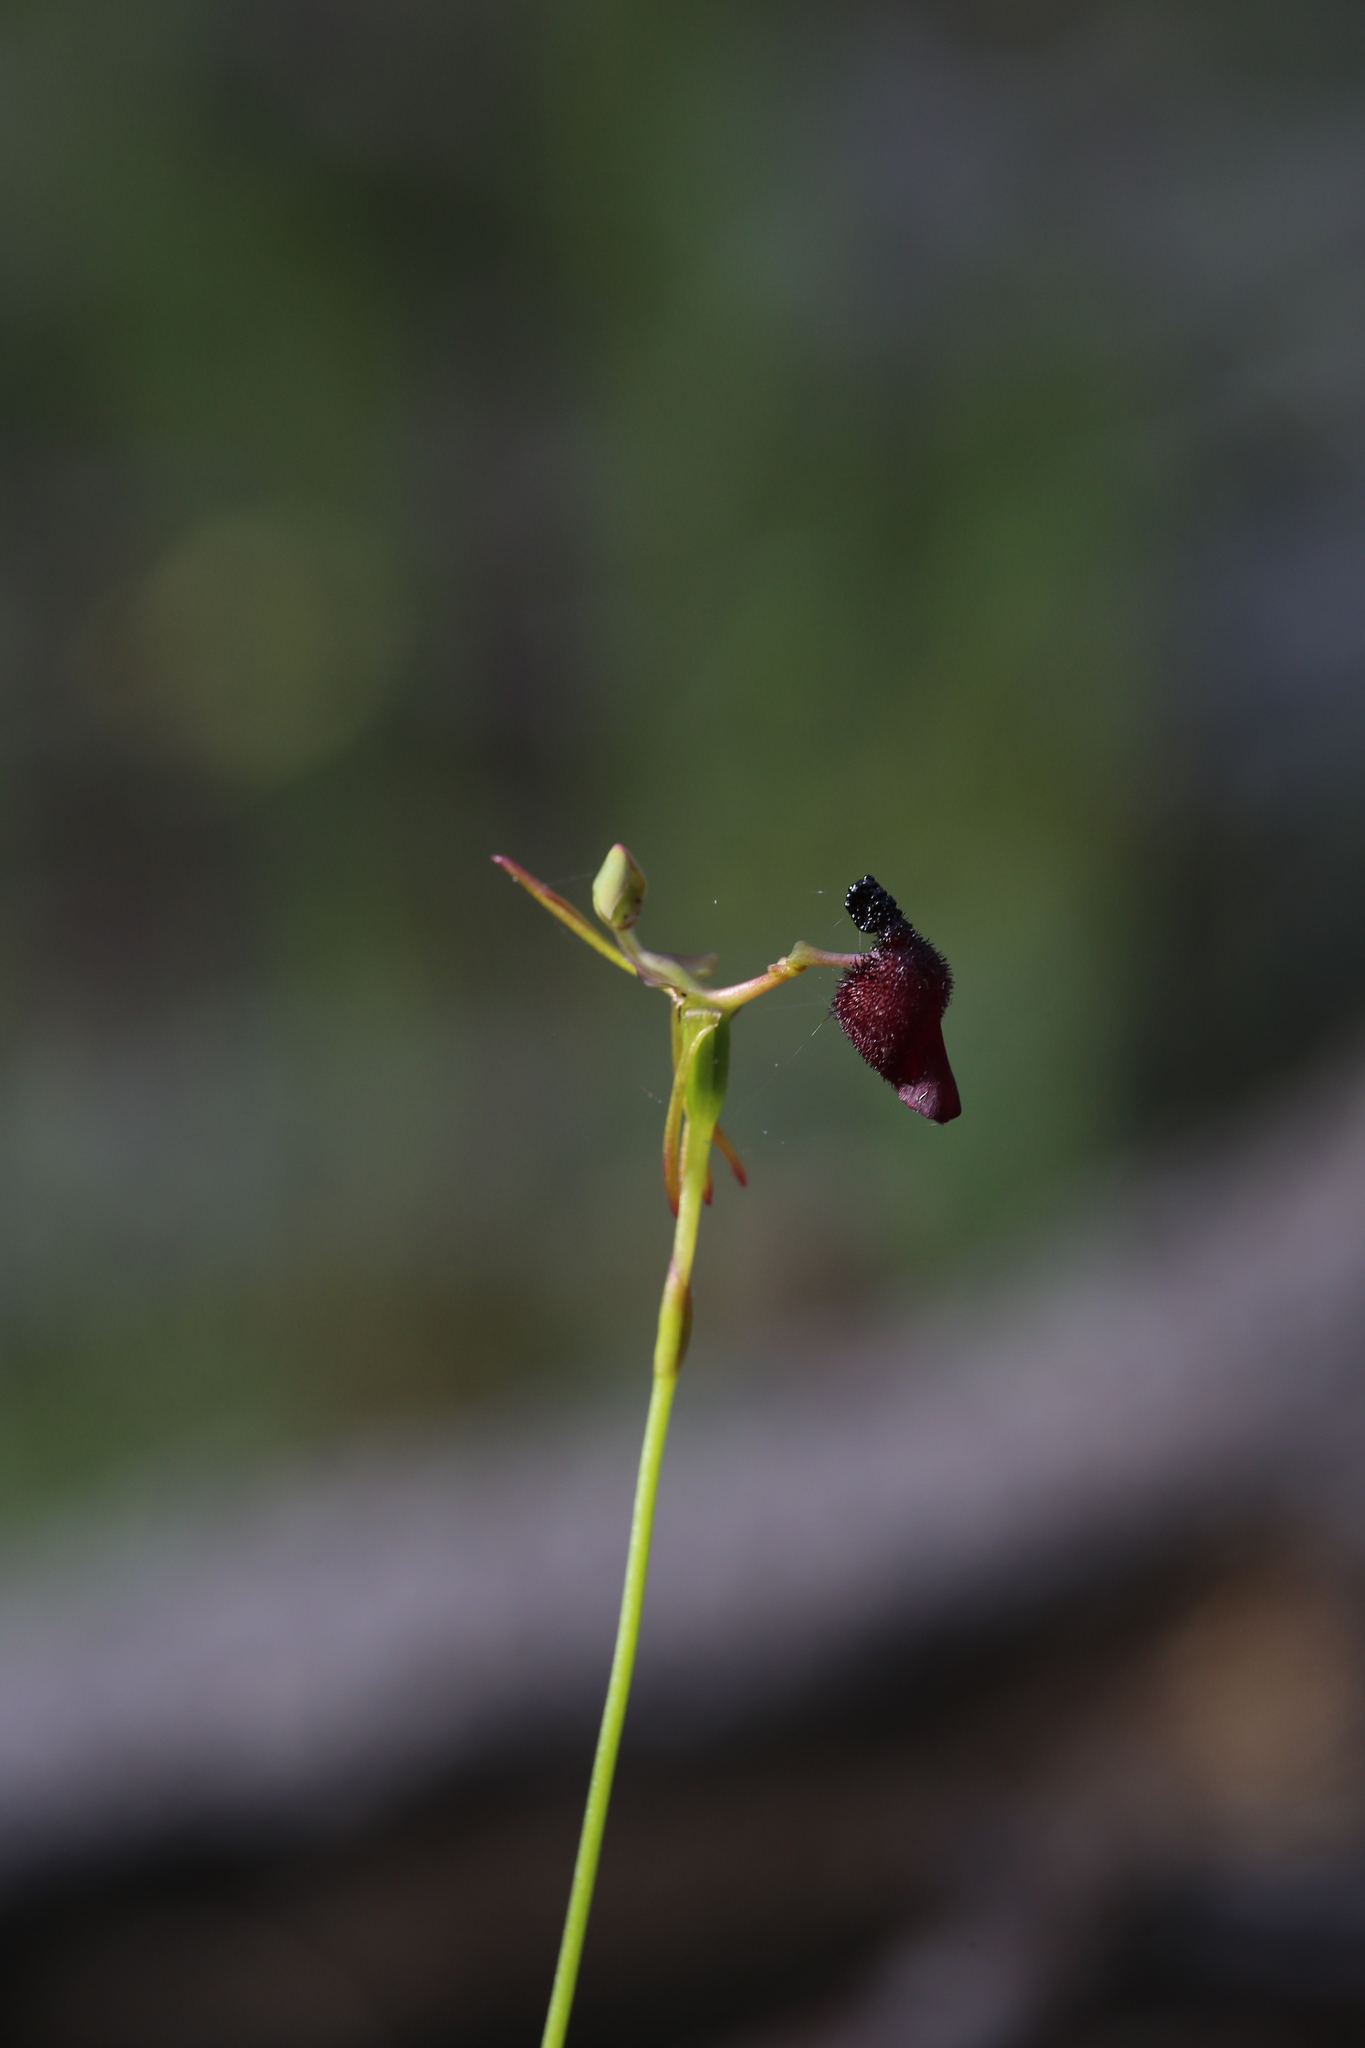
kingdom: Plantae
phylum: Tracheophyta
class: Liliopsida
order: Asparagales
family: Orchidaceae
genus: Drakaea
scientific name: Drakaea glyptodon
